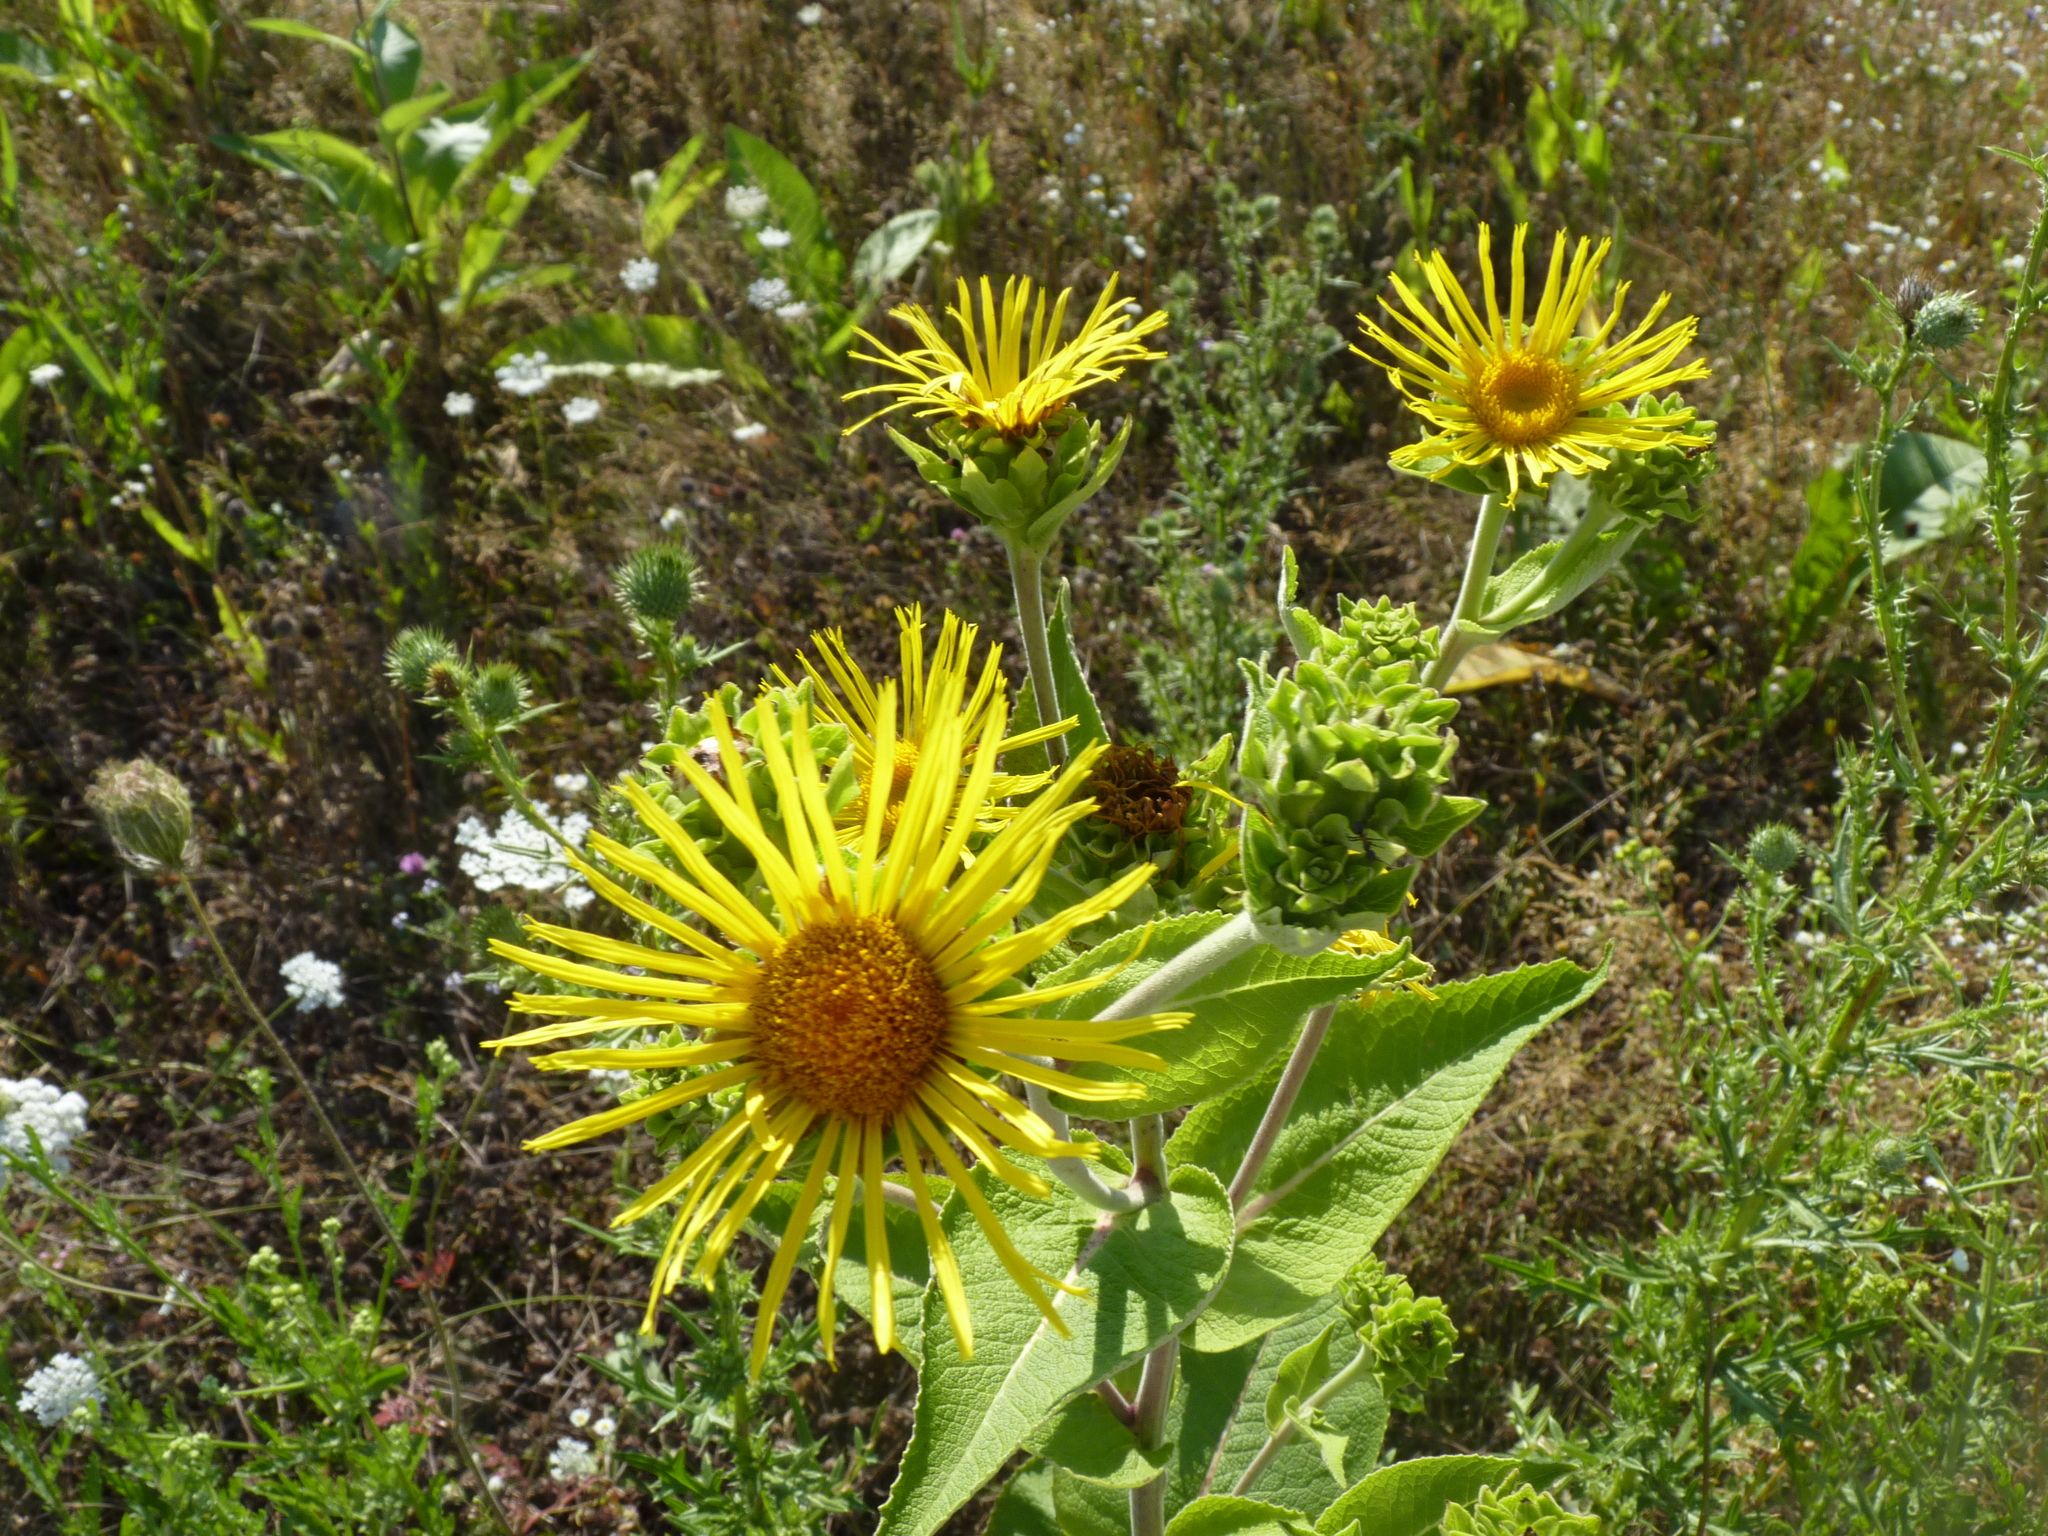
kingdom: Plantae
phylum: Tracheophyta
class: Magnoliopsida
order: Asterales
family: Asteraceae
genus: Inula
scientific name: Inula helenium
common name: Elecampane
